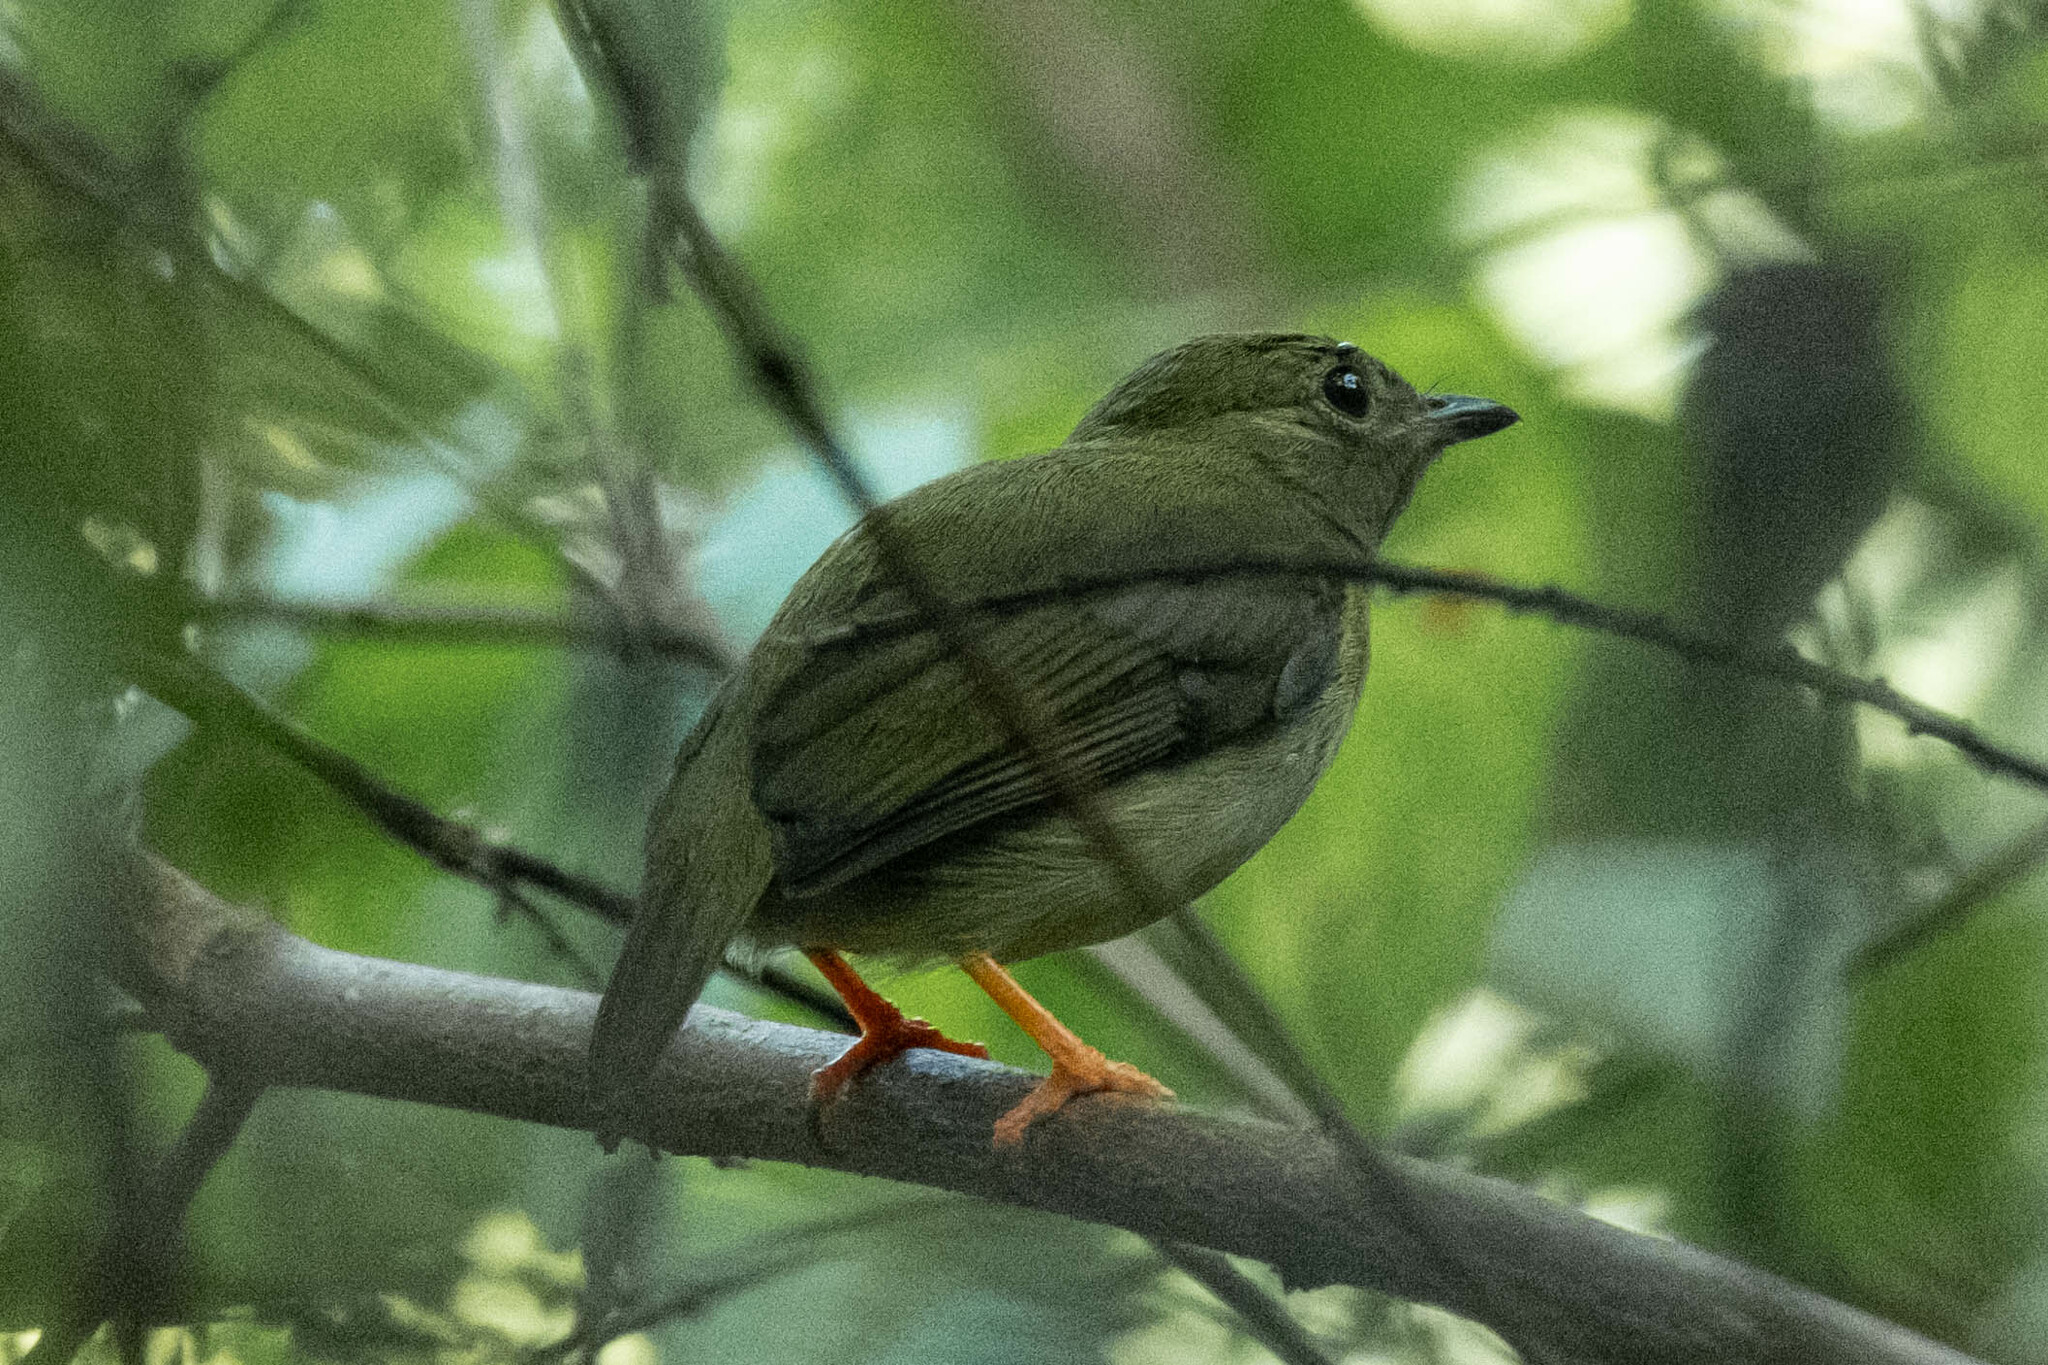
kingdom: Animalia
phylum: Chordata
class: Aves
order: Passeriformes
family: Pipridae
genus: Manacus
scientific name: Manacus manacus
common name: White-bearded manakin
